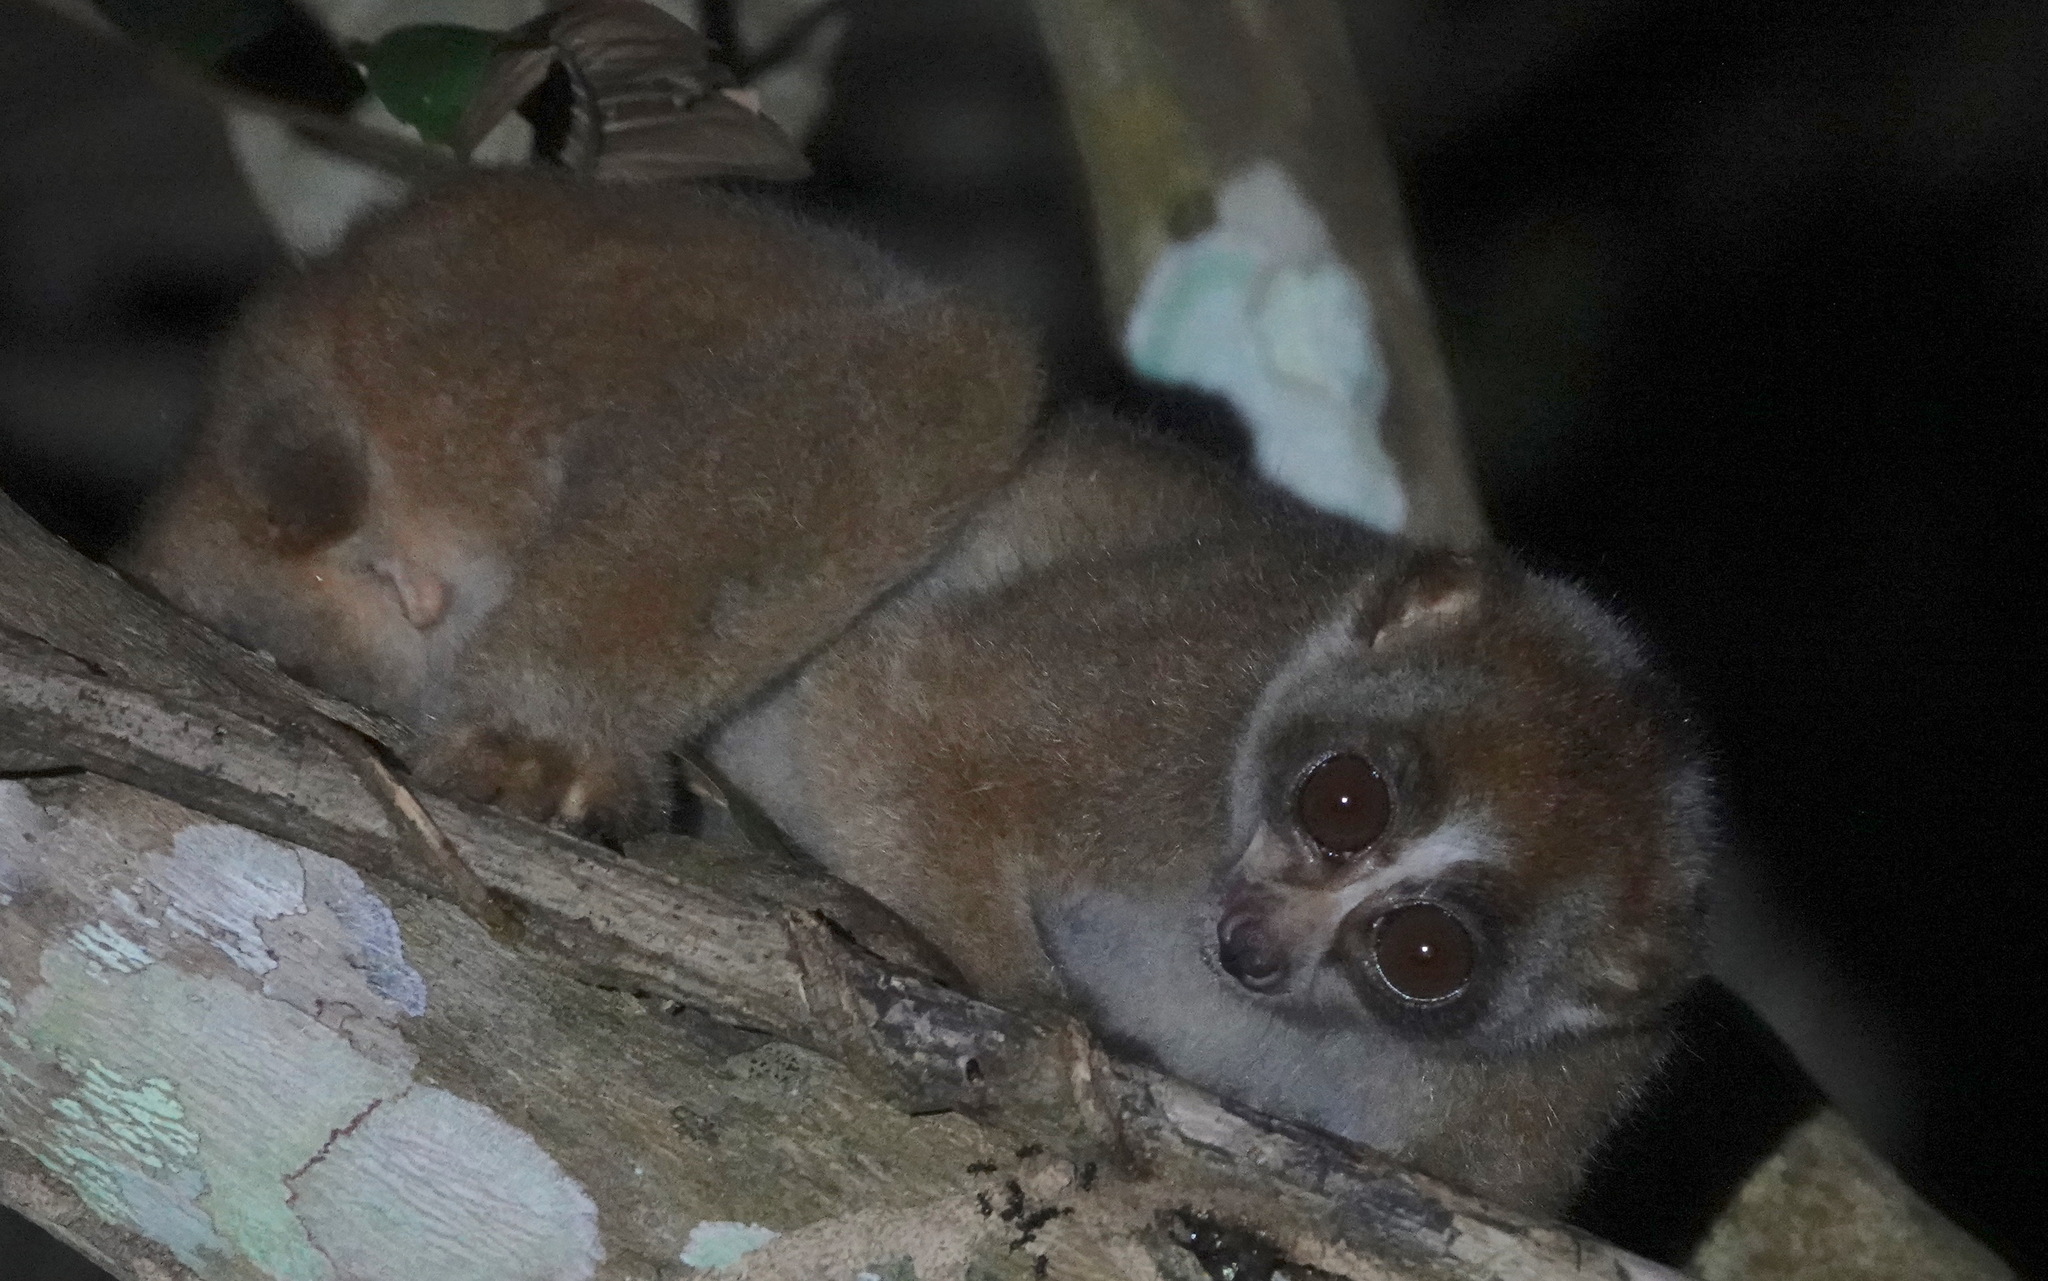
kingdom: Animalia
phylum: Chordata
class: Mammalia
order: Primates
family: Lorisidae
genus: Nycticebus
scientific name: Nycticebus coucang
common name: Sunda slow loris
